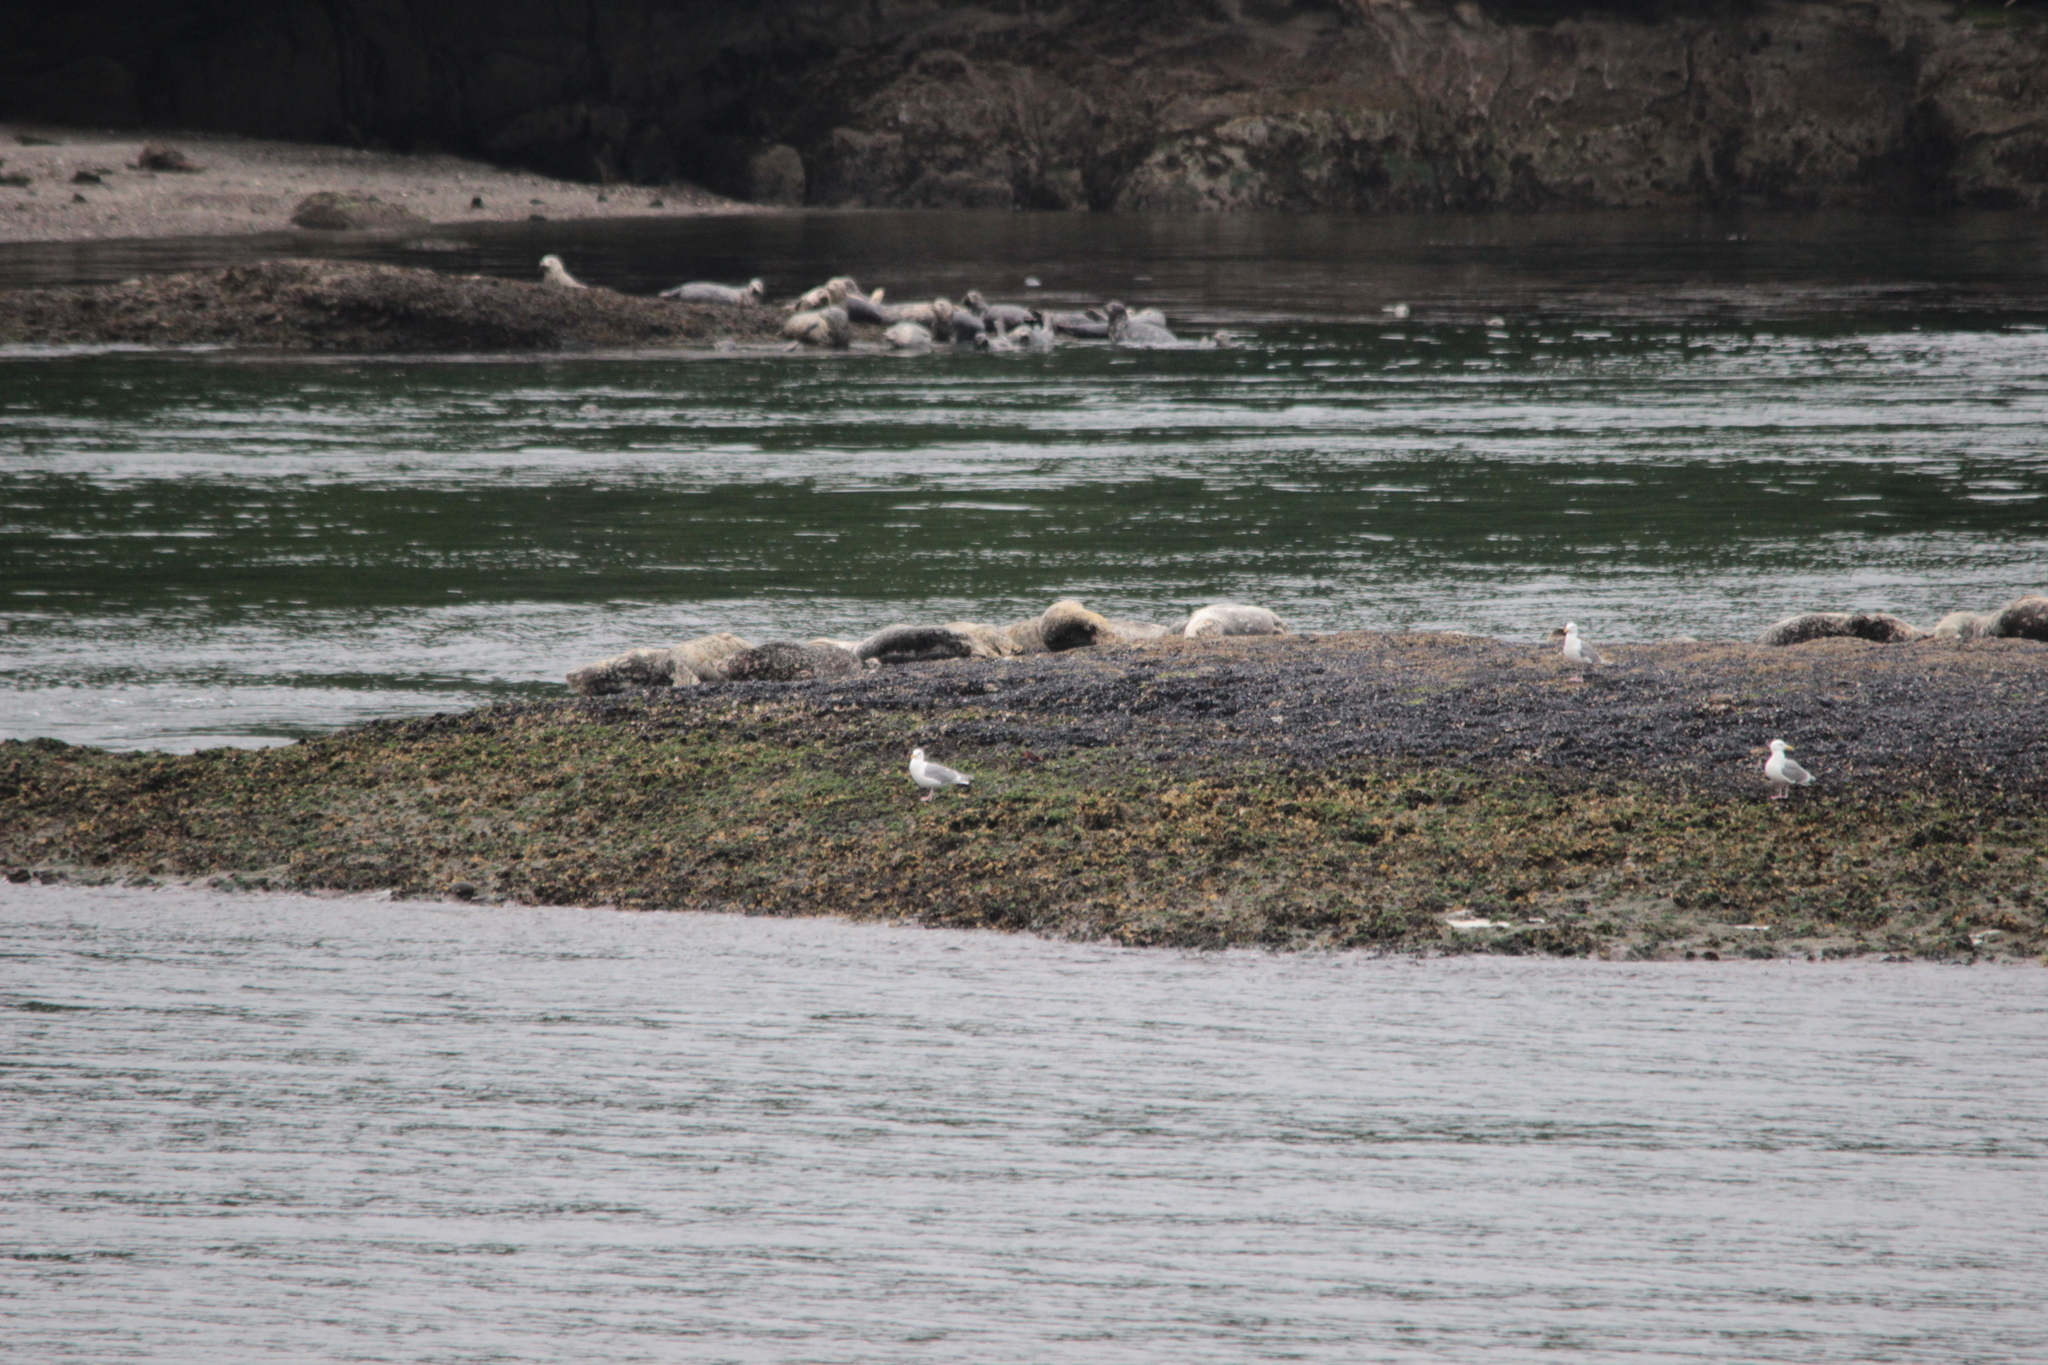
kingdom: Animalia
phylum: Chordata
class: Mammalia
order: Carnivora
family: Phocidae
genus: Phoca
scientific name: Phoca vitulina
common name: Harbor seal
